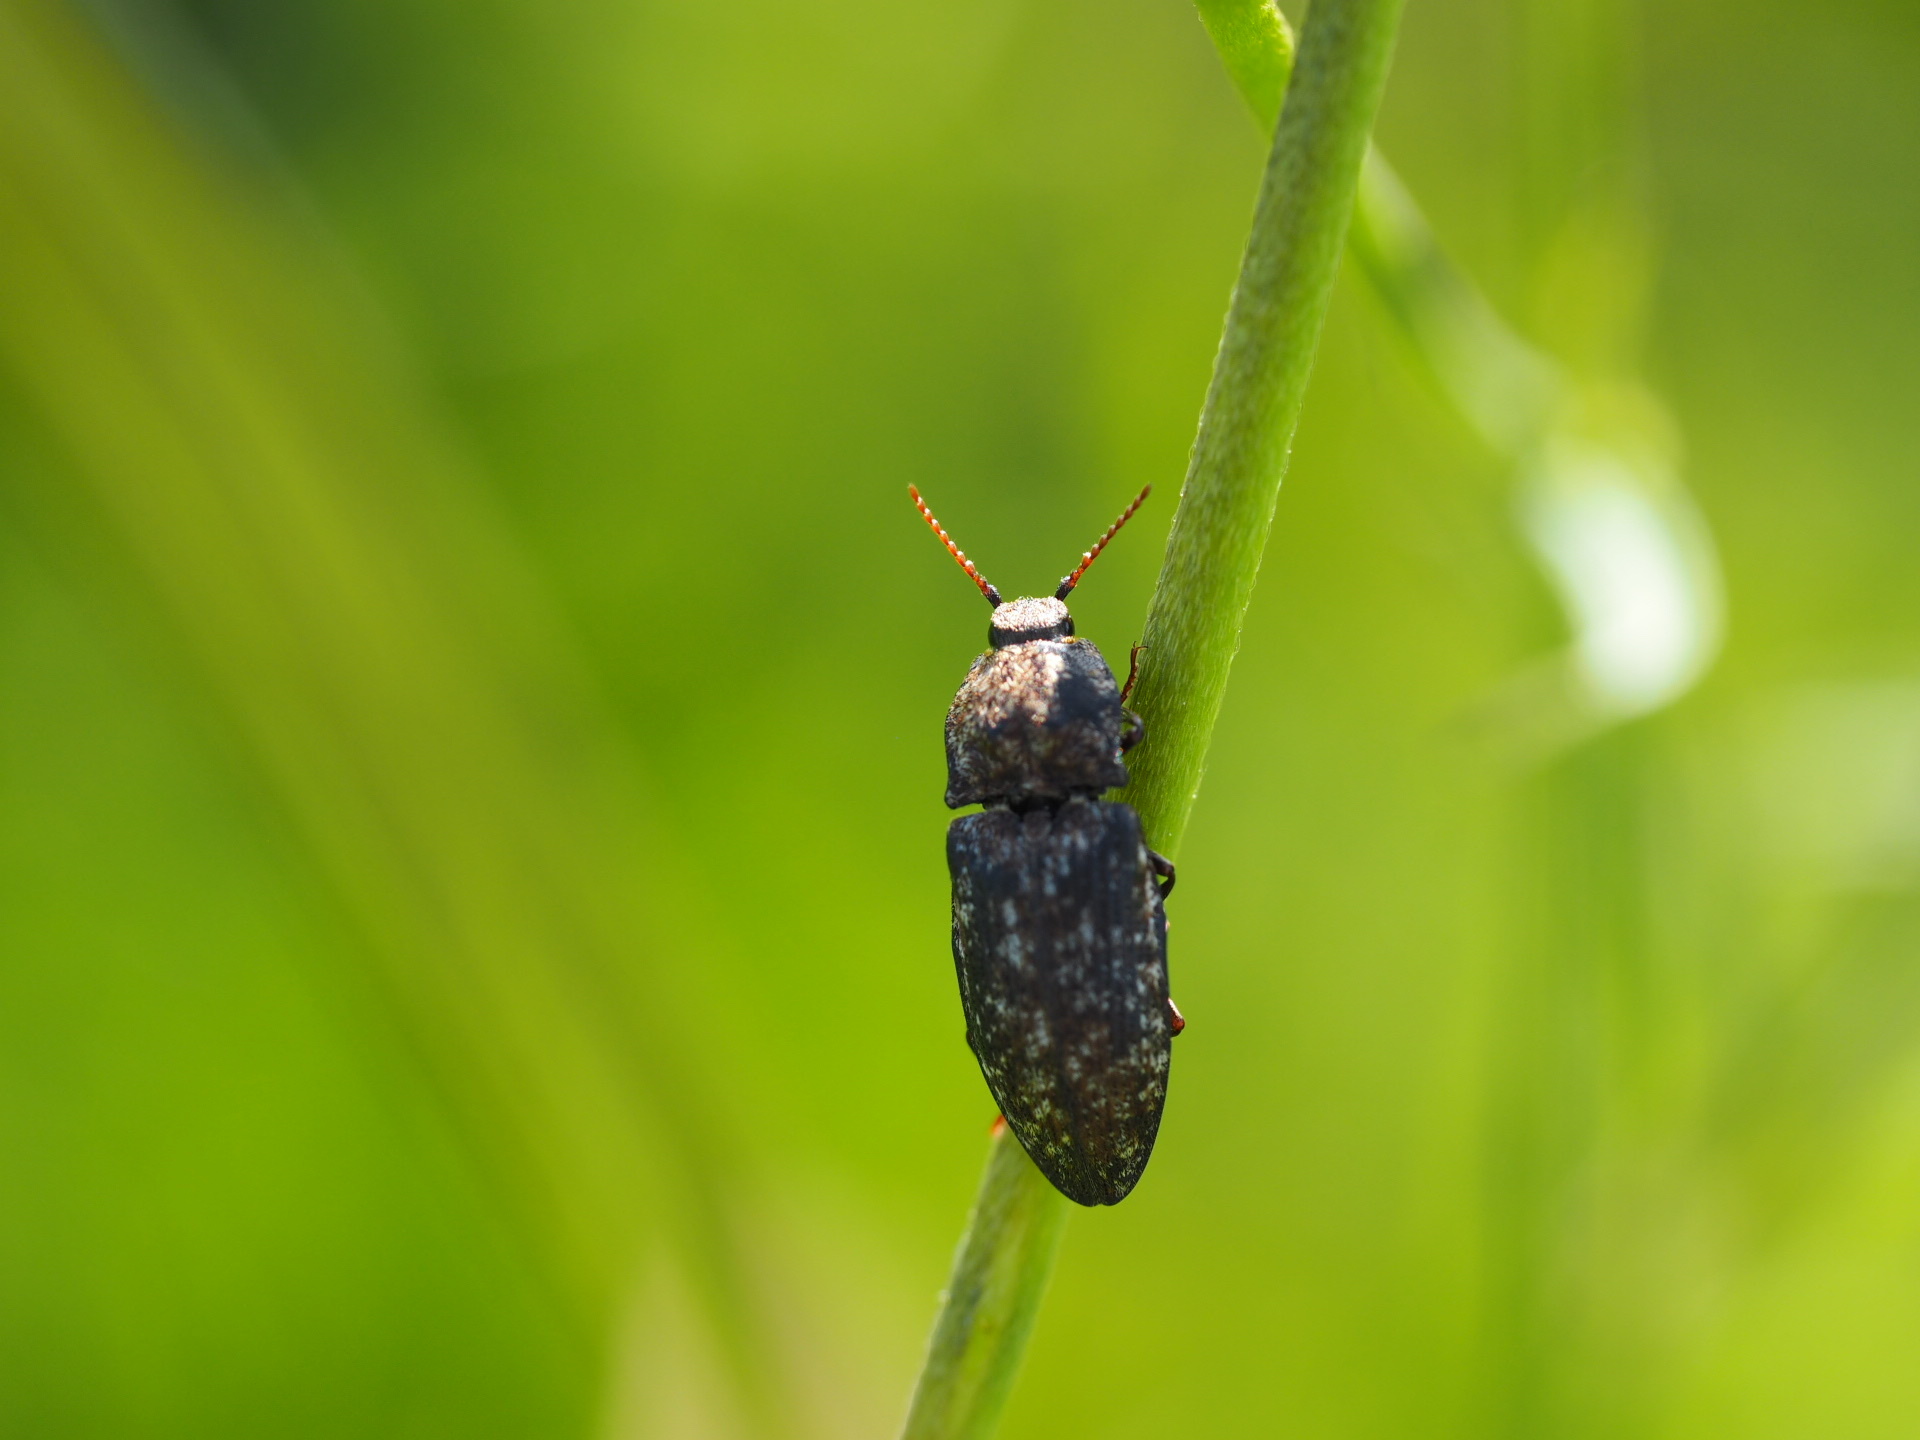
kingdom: Animalia
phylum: Arthropoda
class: Insecta
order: Coleoptera
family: Elateridae
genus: Agrypnus
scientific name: Agrypnus murinus
